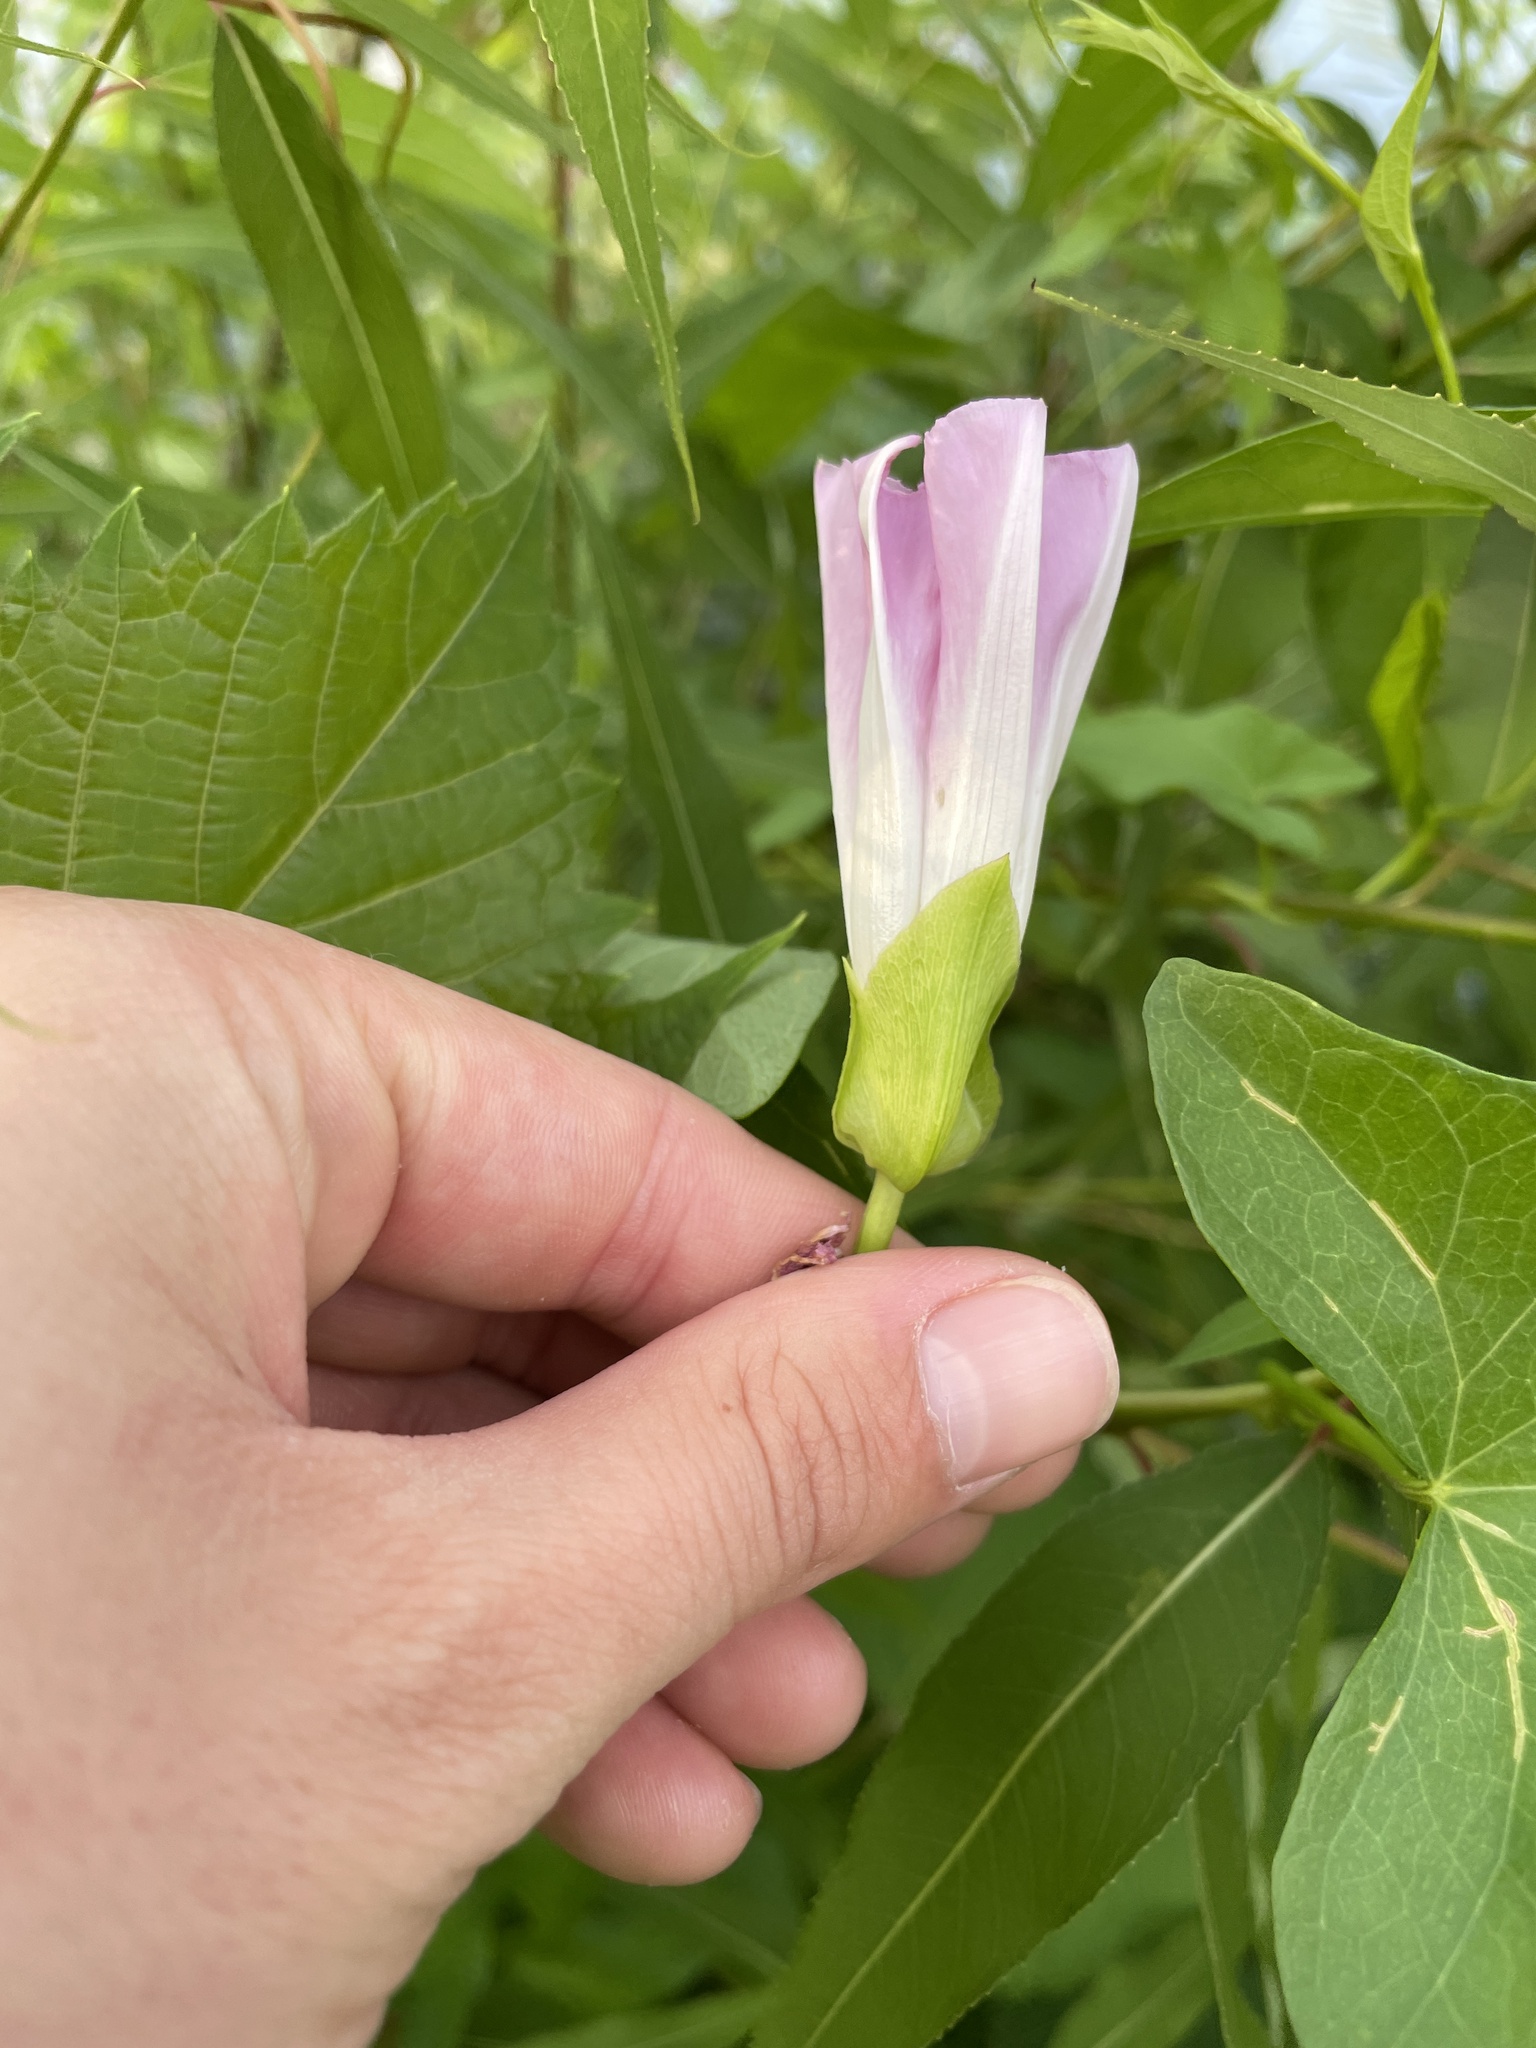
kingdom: Plantae
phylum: Tracheophyta
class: Magnoliopsida
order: Solanales
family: Convolvulaceae
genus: Calystegia
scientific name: Calystegia sepium
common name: Hedge bindweed
